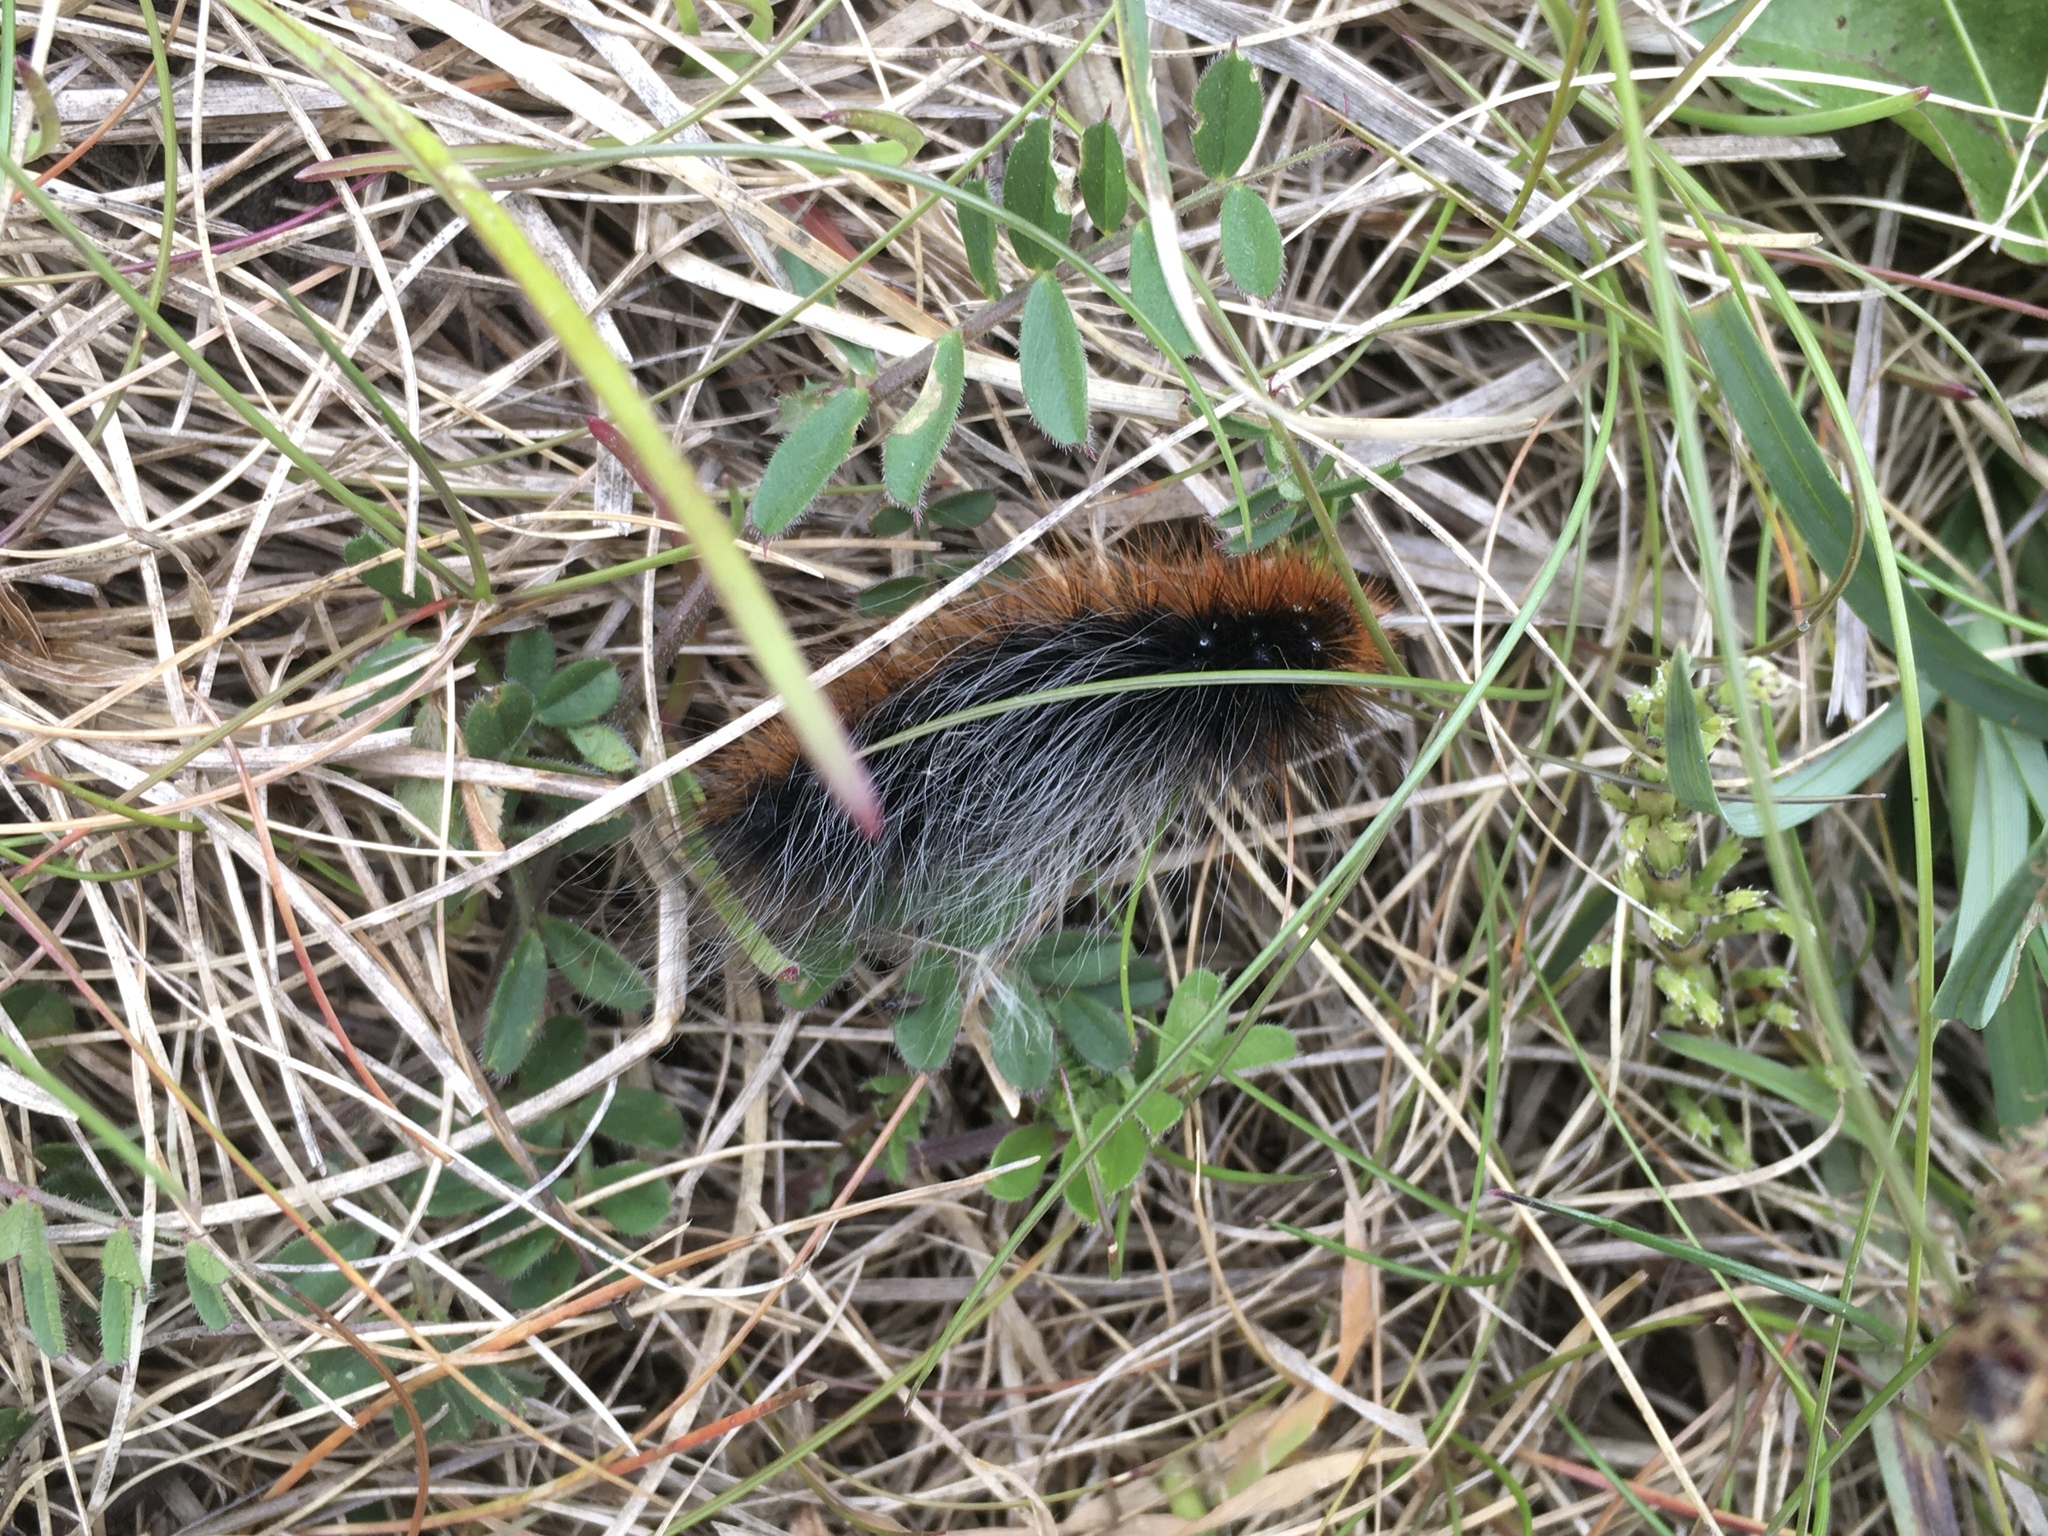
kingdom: Animalia
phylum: Arthropoda
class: Insecta
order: Lepidoptera
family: Erebidae
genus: Arctia
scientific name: Arctia caja
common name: Garden tiger
